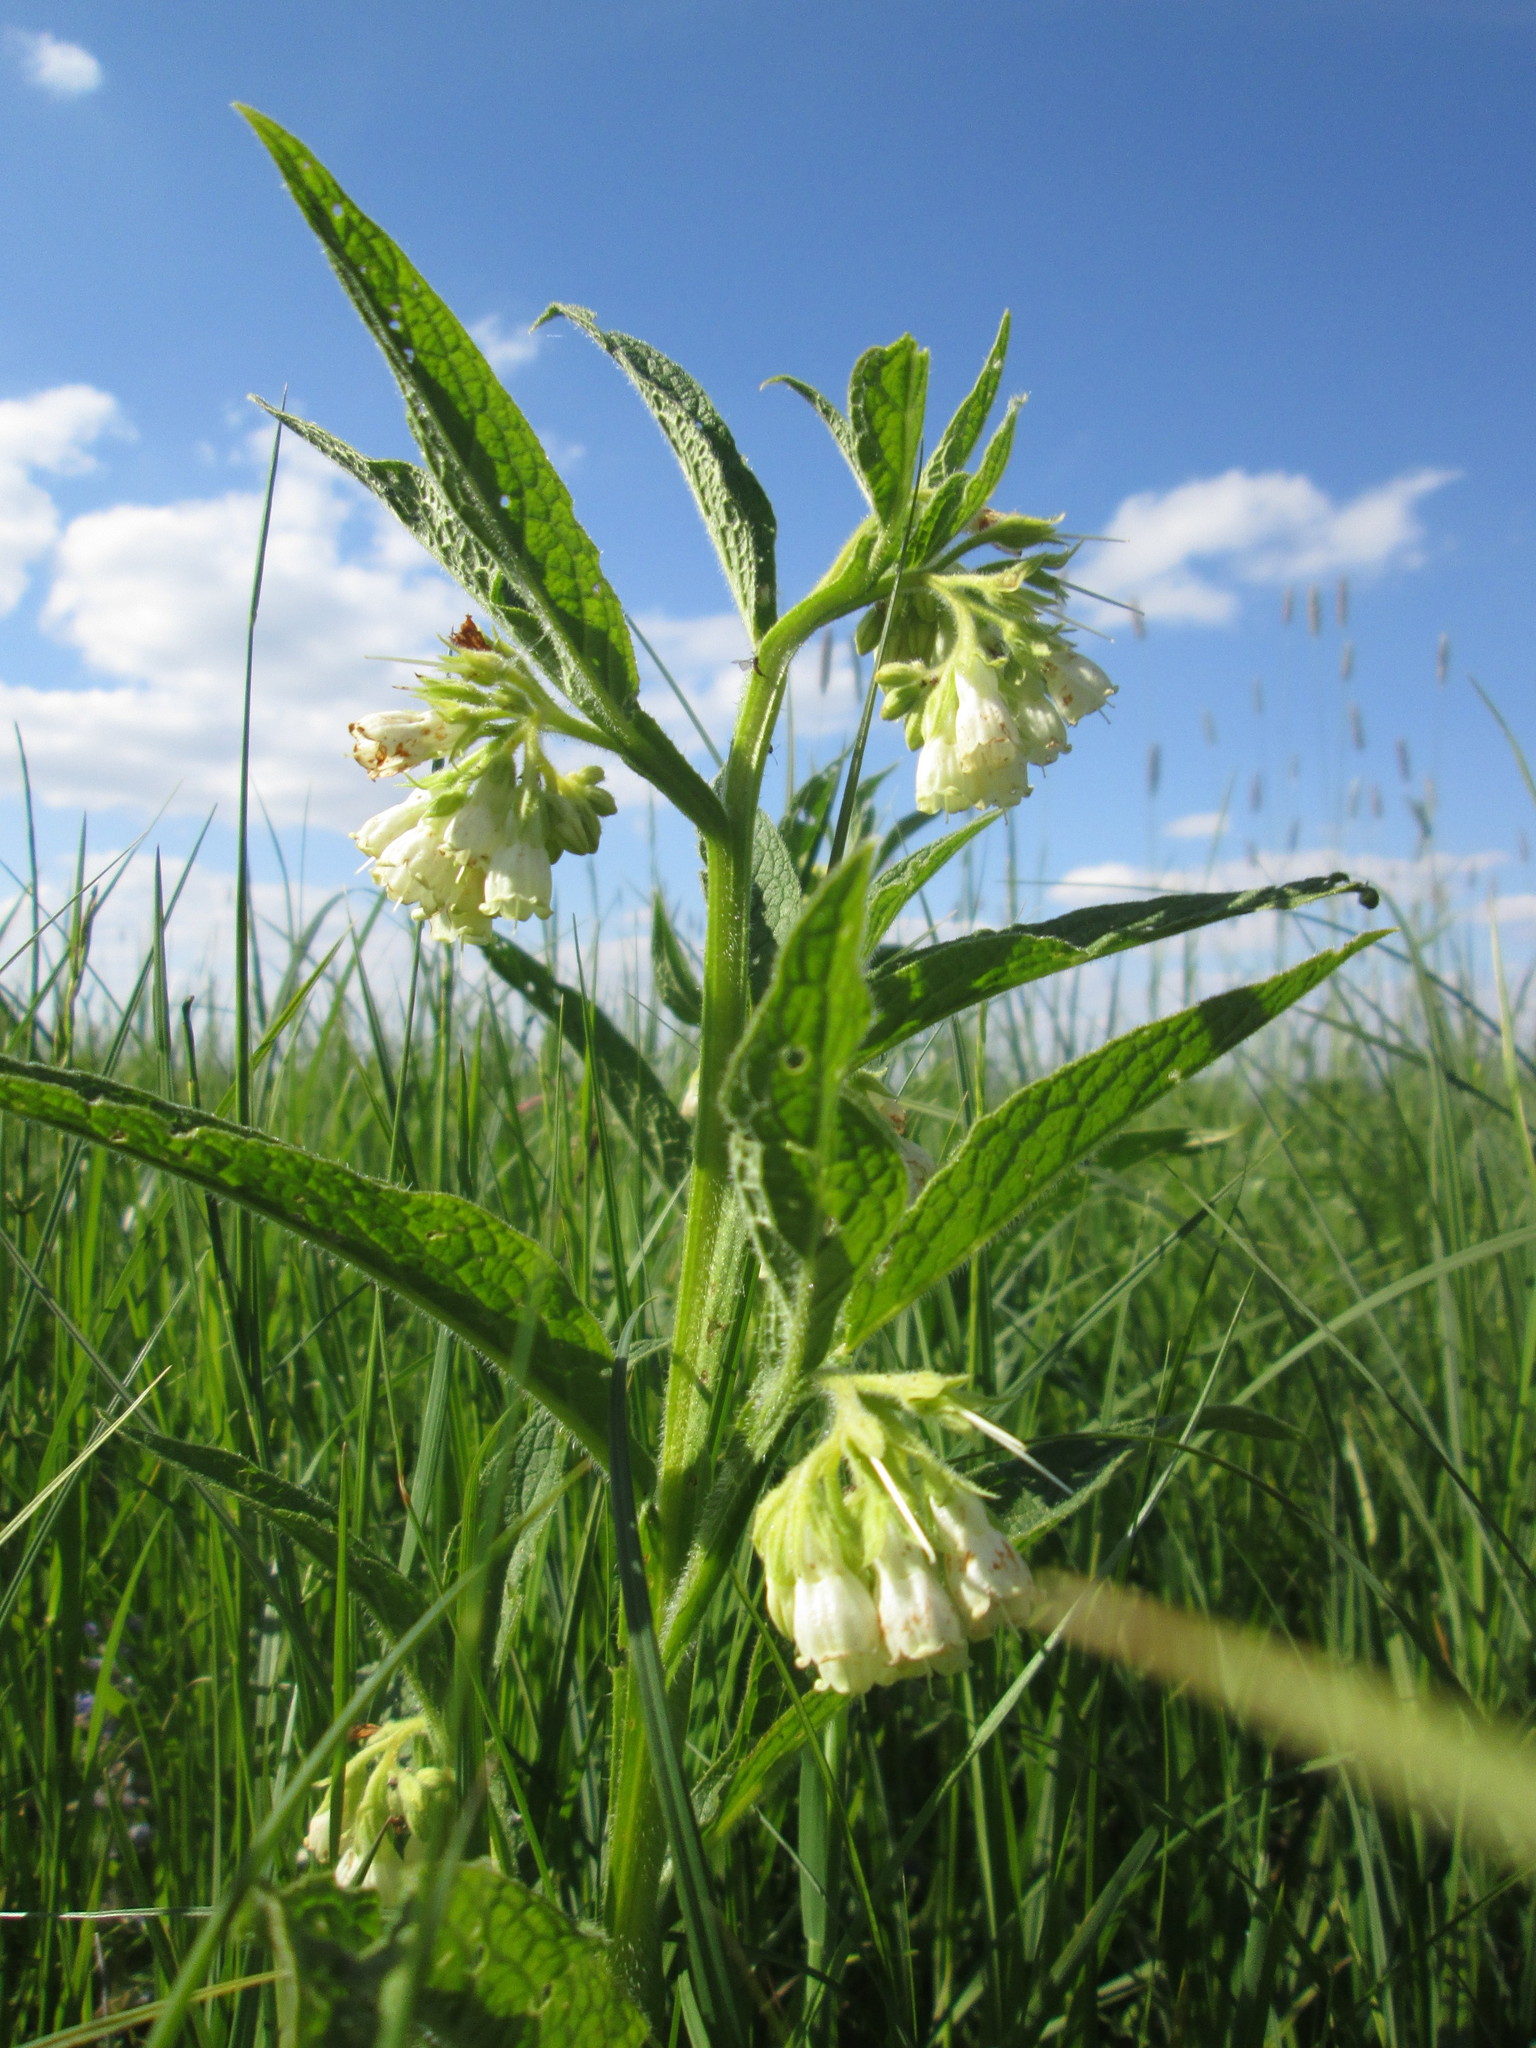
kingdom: Plantae
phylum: Tracheophyta
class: Magnoliopsida
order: Boraginales
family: Boraginaceae
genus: Symphytum
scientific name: Symphytum officinale
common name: Common comfrey
